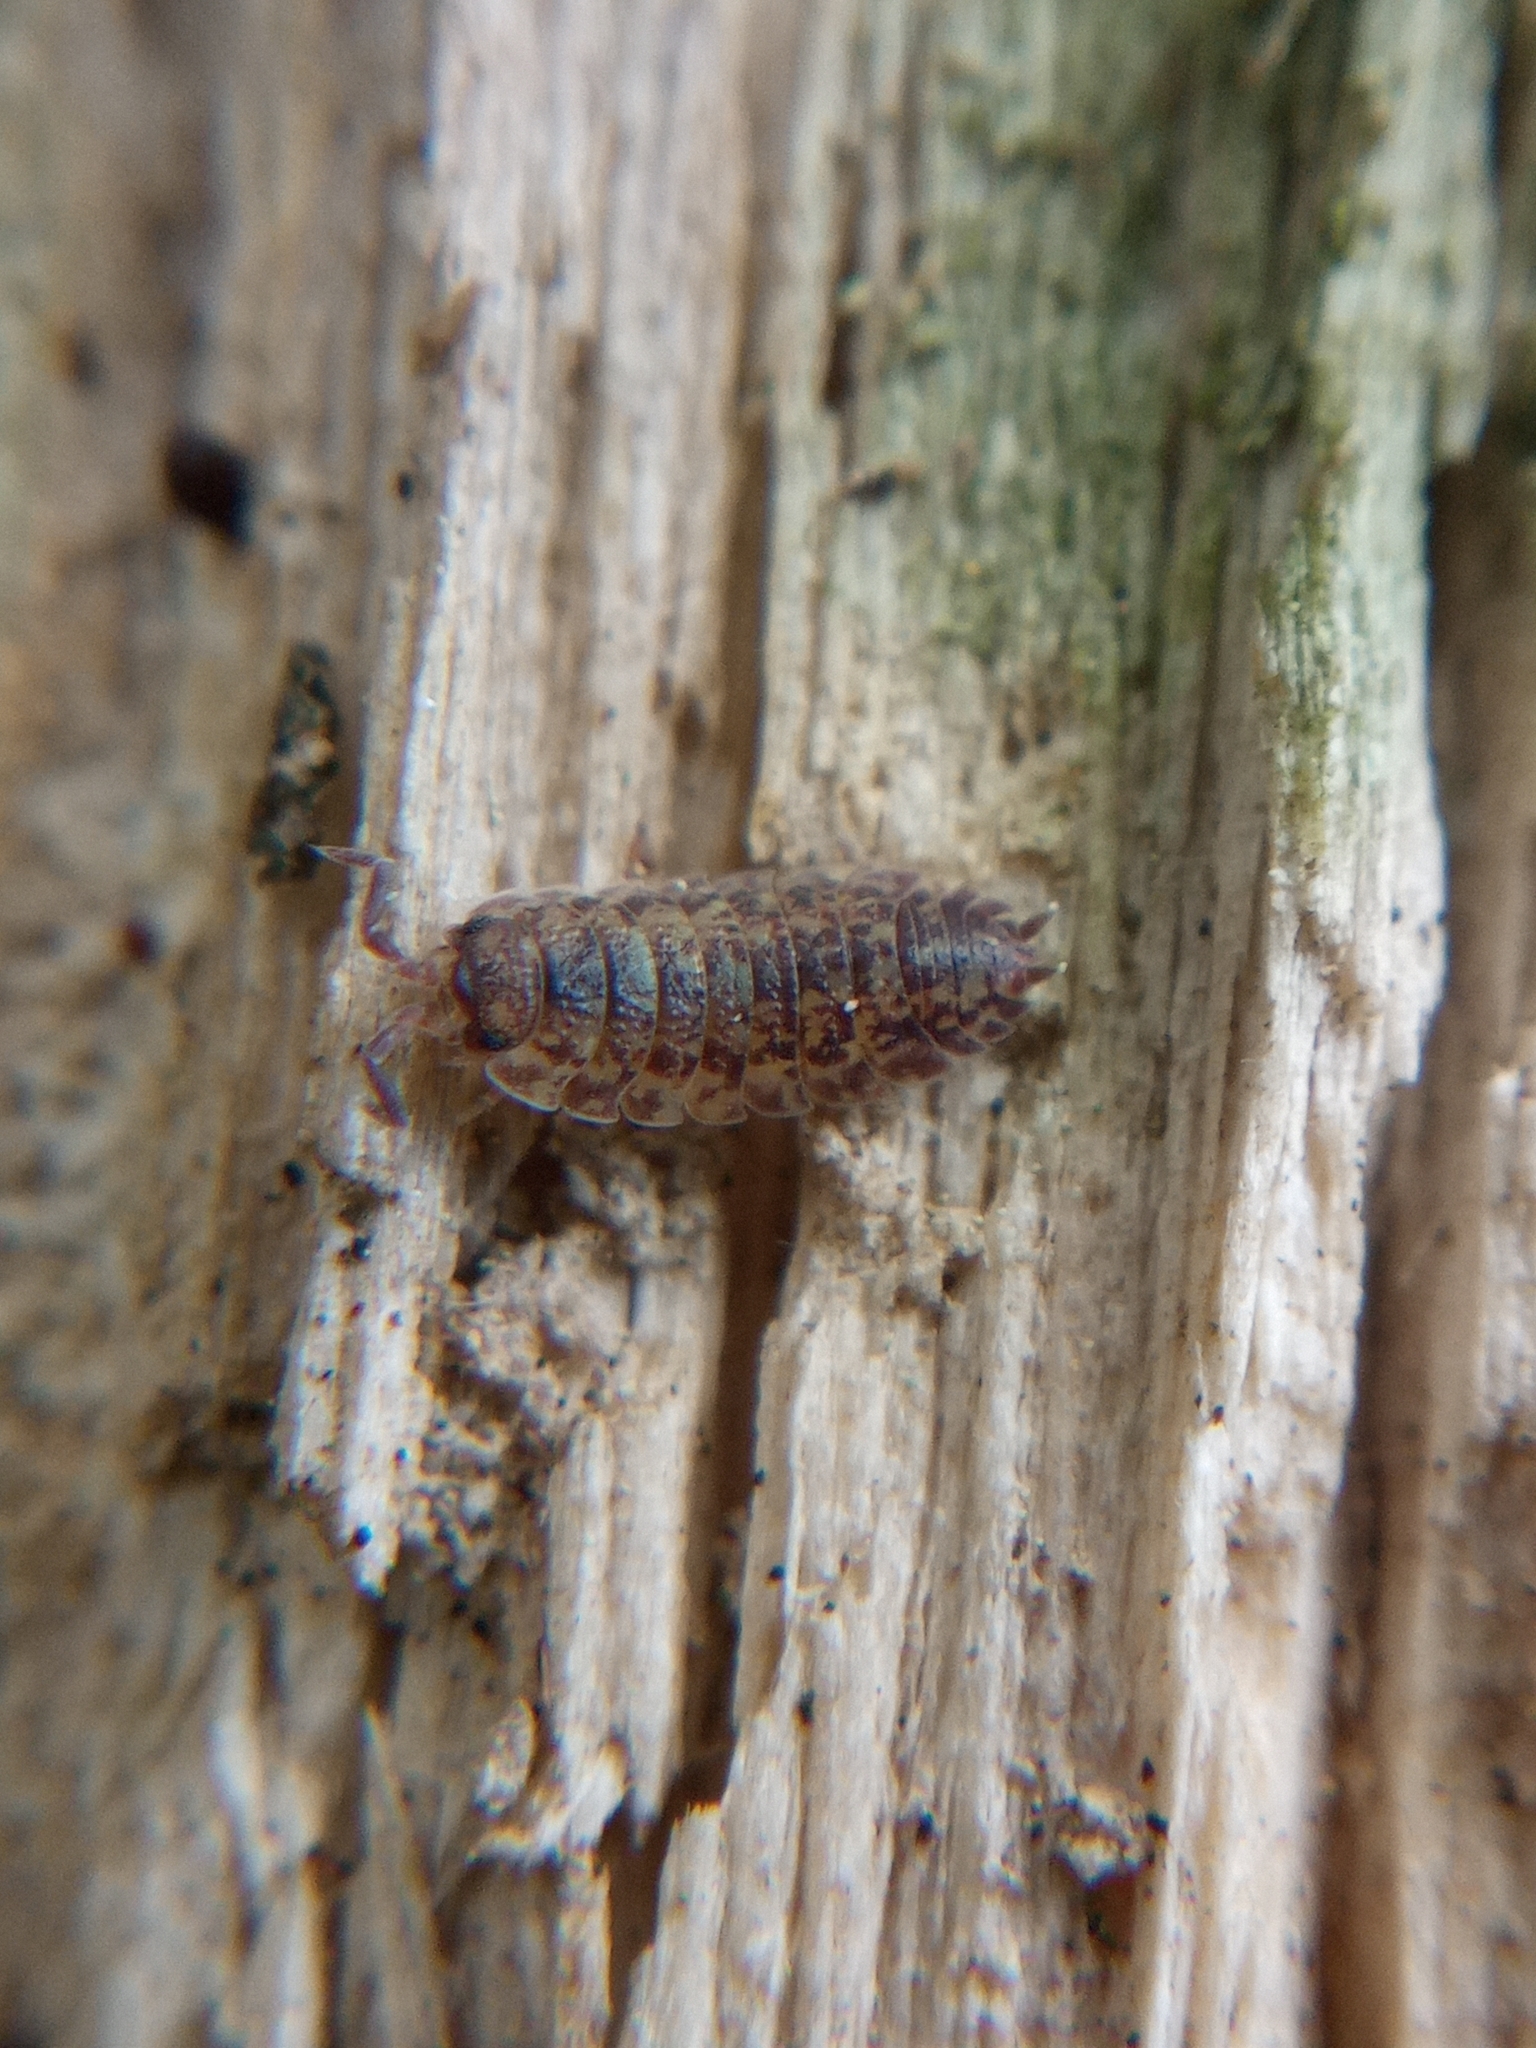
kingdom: Animalia
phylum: Arthropoda
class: Malacostraca
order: Isopoda
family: Porcellionidae
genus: Porcellio
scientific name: Porcellio scaber
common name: Common rough woodlouse
